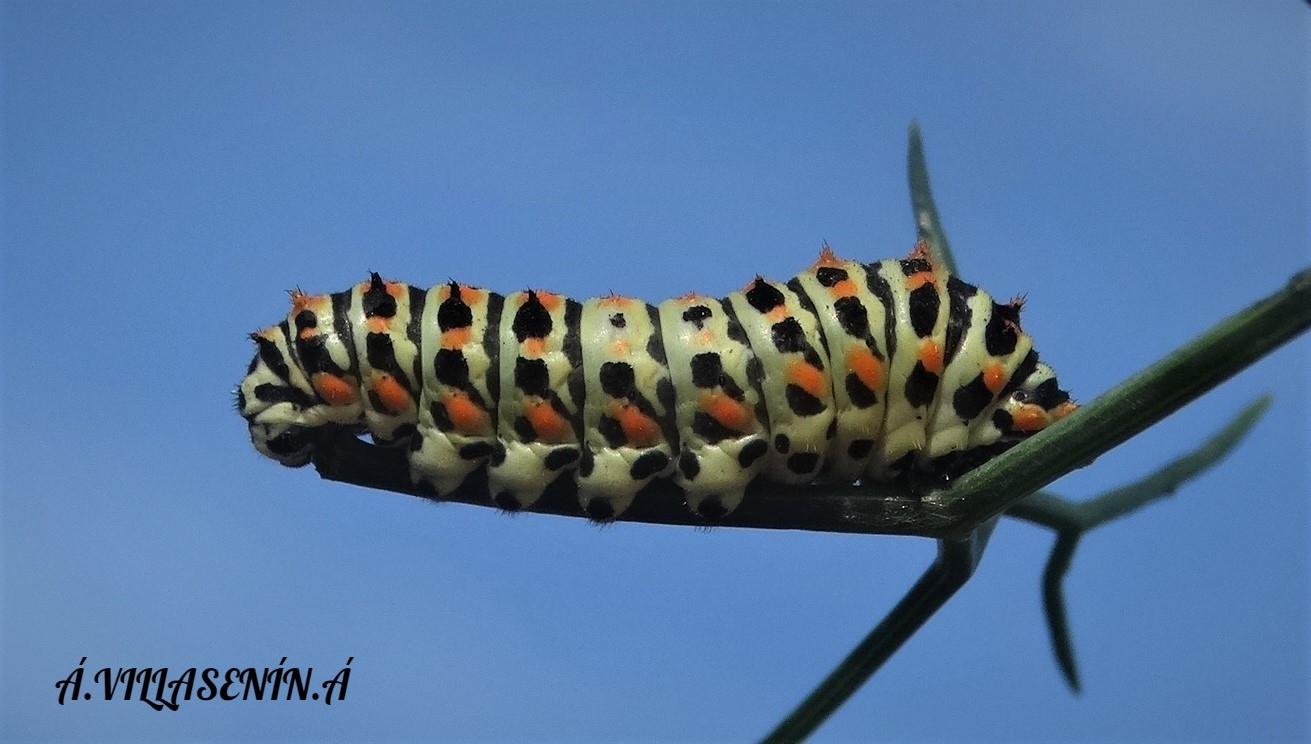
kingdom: Animalia
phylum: Arthropoda
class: Insecta
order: Lepidoptera
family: Papilionidae
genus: Papilio
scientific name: Papilio machaon
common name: Swallowtail
